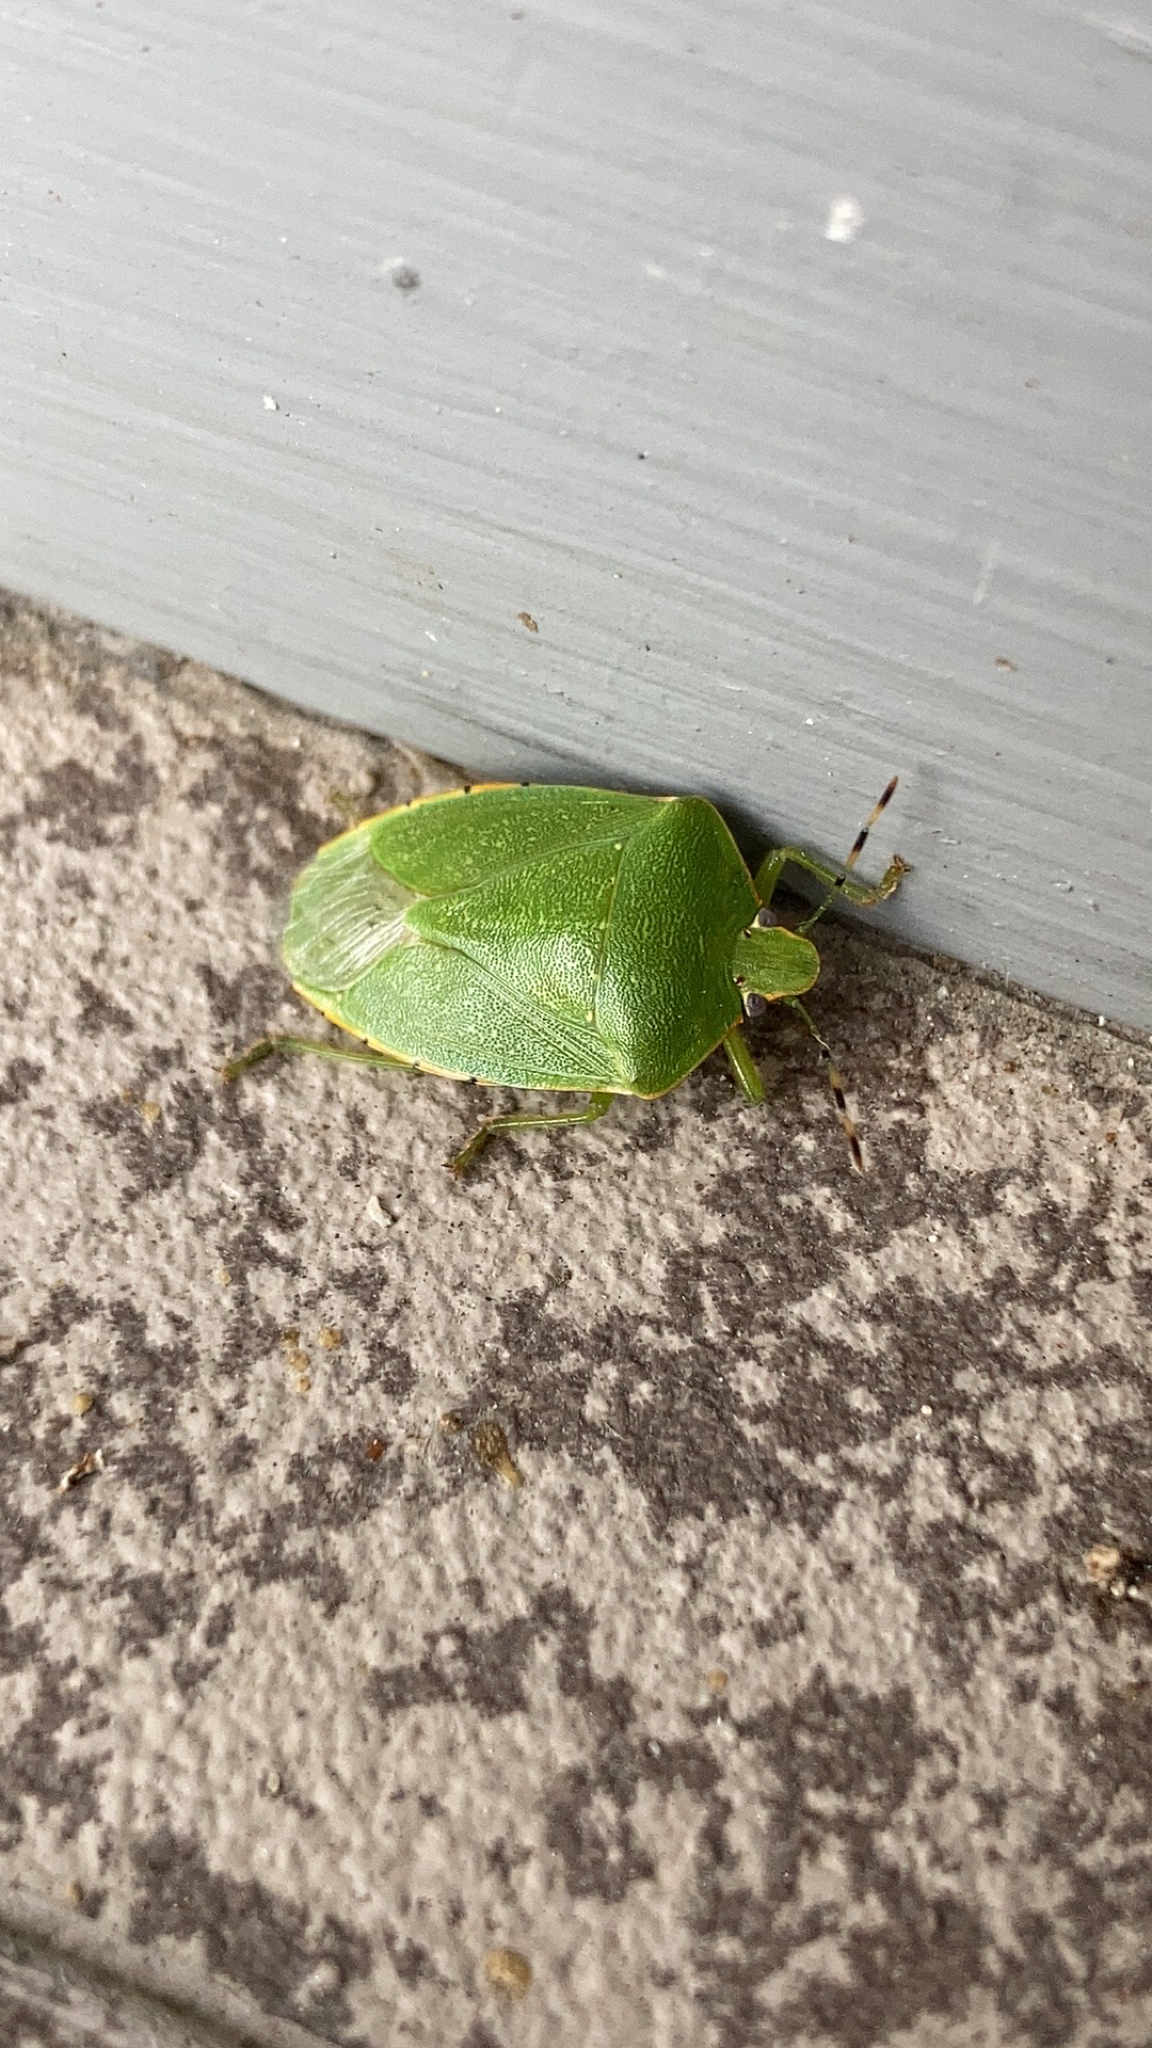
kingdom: Animalia
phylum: Arthropoda
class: Insecta
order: Hemiptera
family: Pentatomidae
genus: Chinavia
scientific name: Chinavia hilaris
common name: Green stink bug
